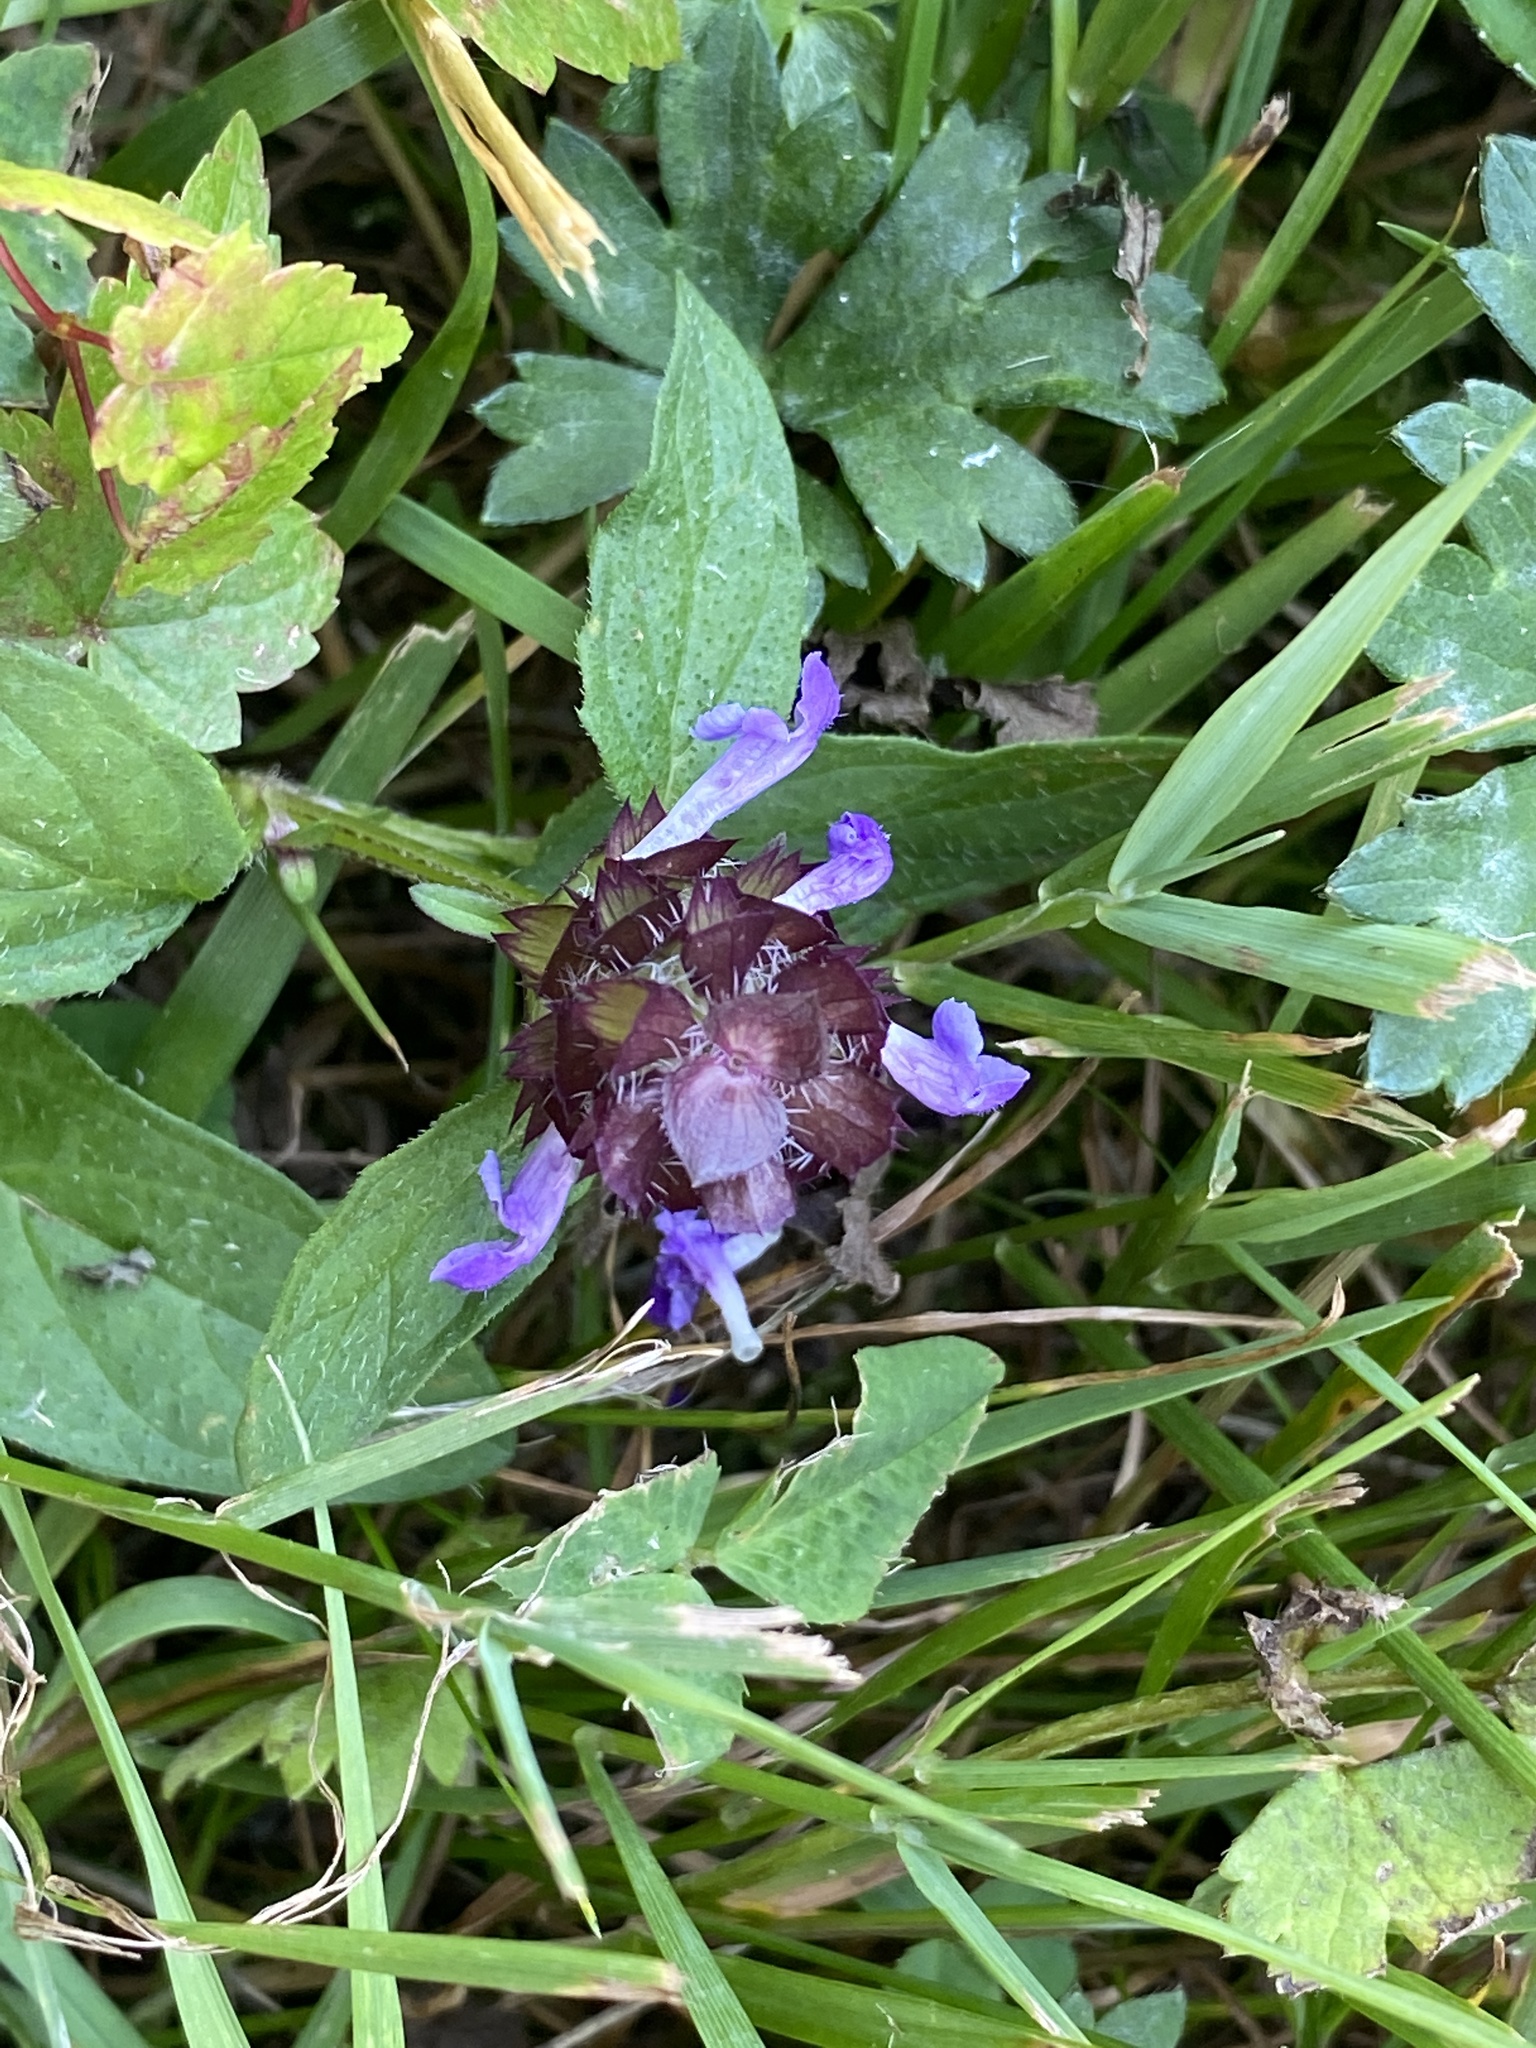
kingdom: Plantae
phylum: Tracheophyta
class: Magnoliopsida
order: Lamiales
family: Lamiaceae
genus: Prunella
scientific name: Prunella vulgaris
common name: Heal-all
